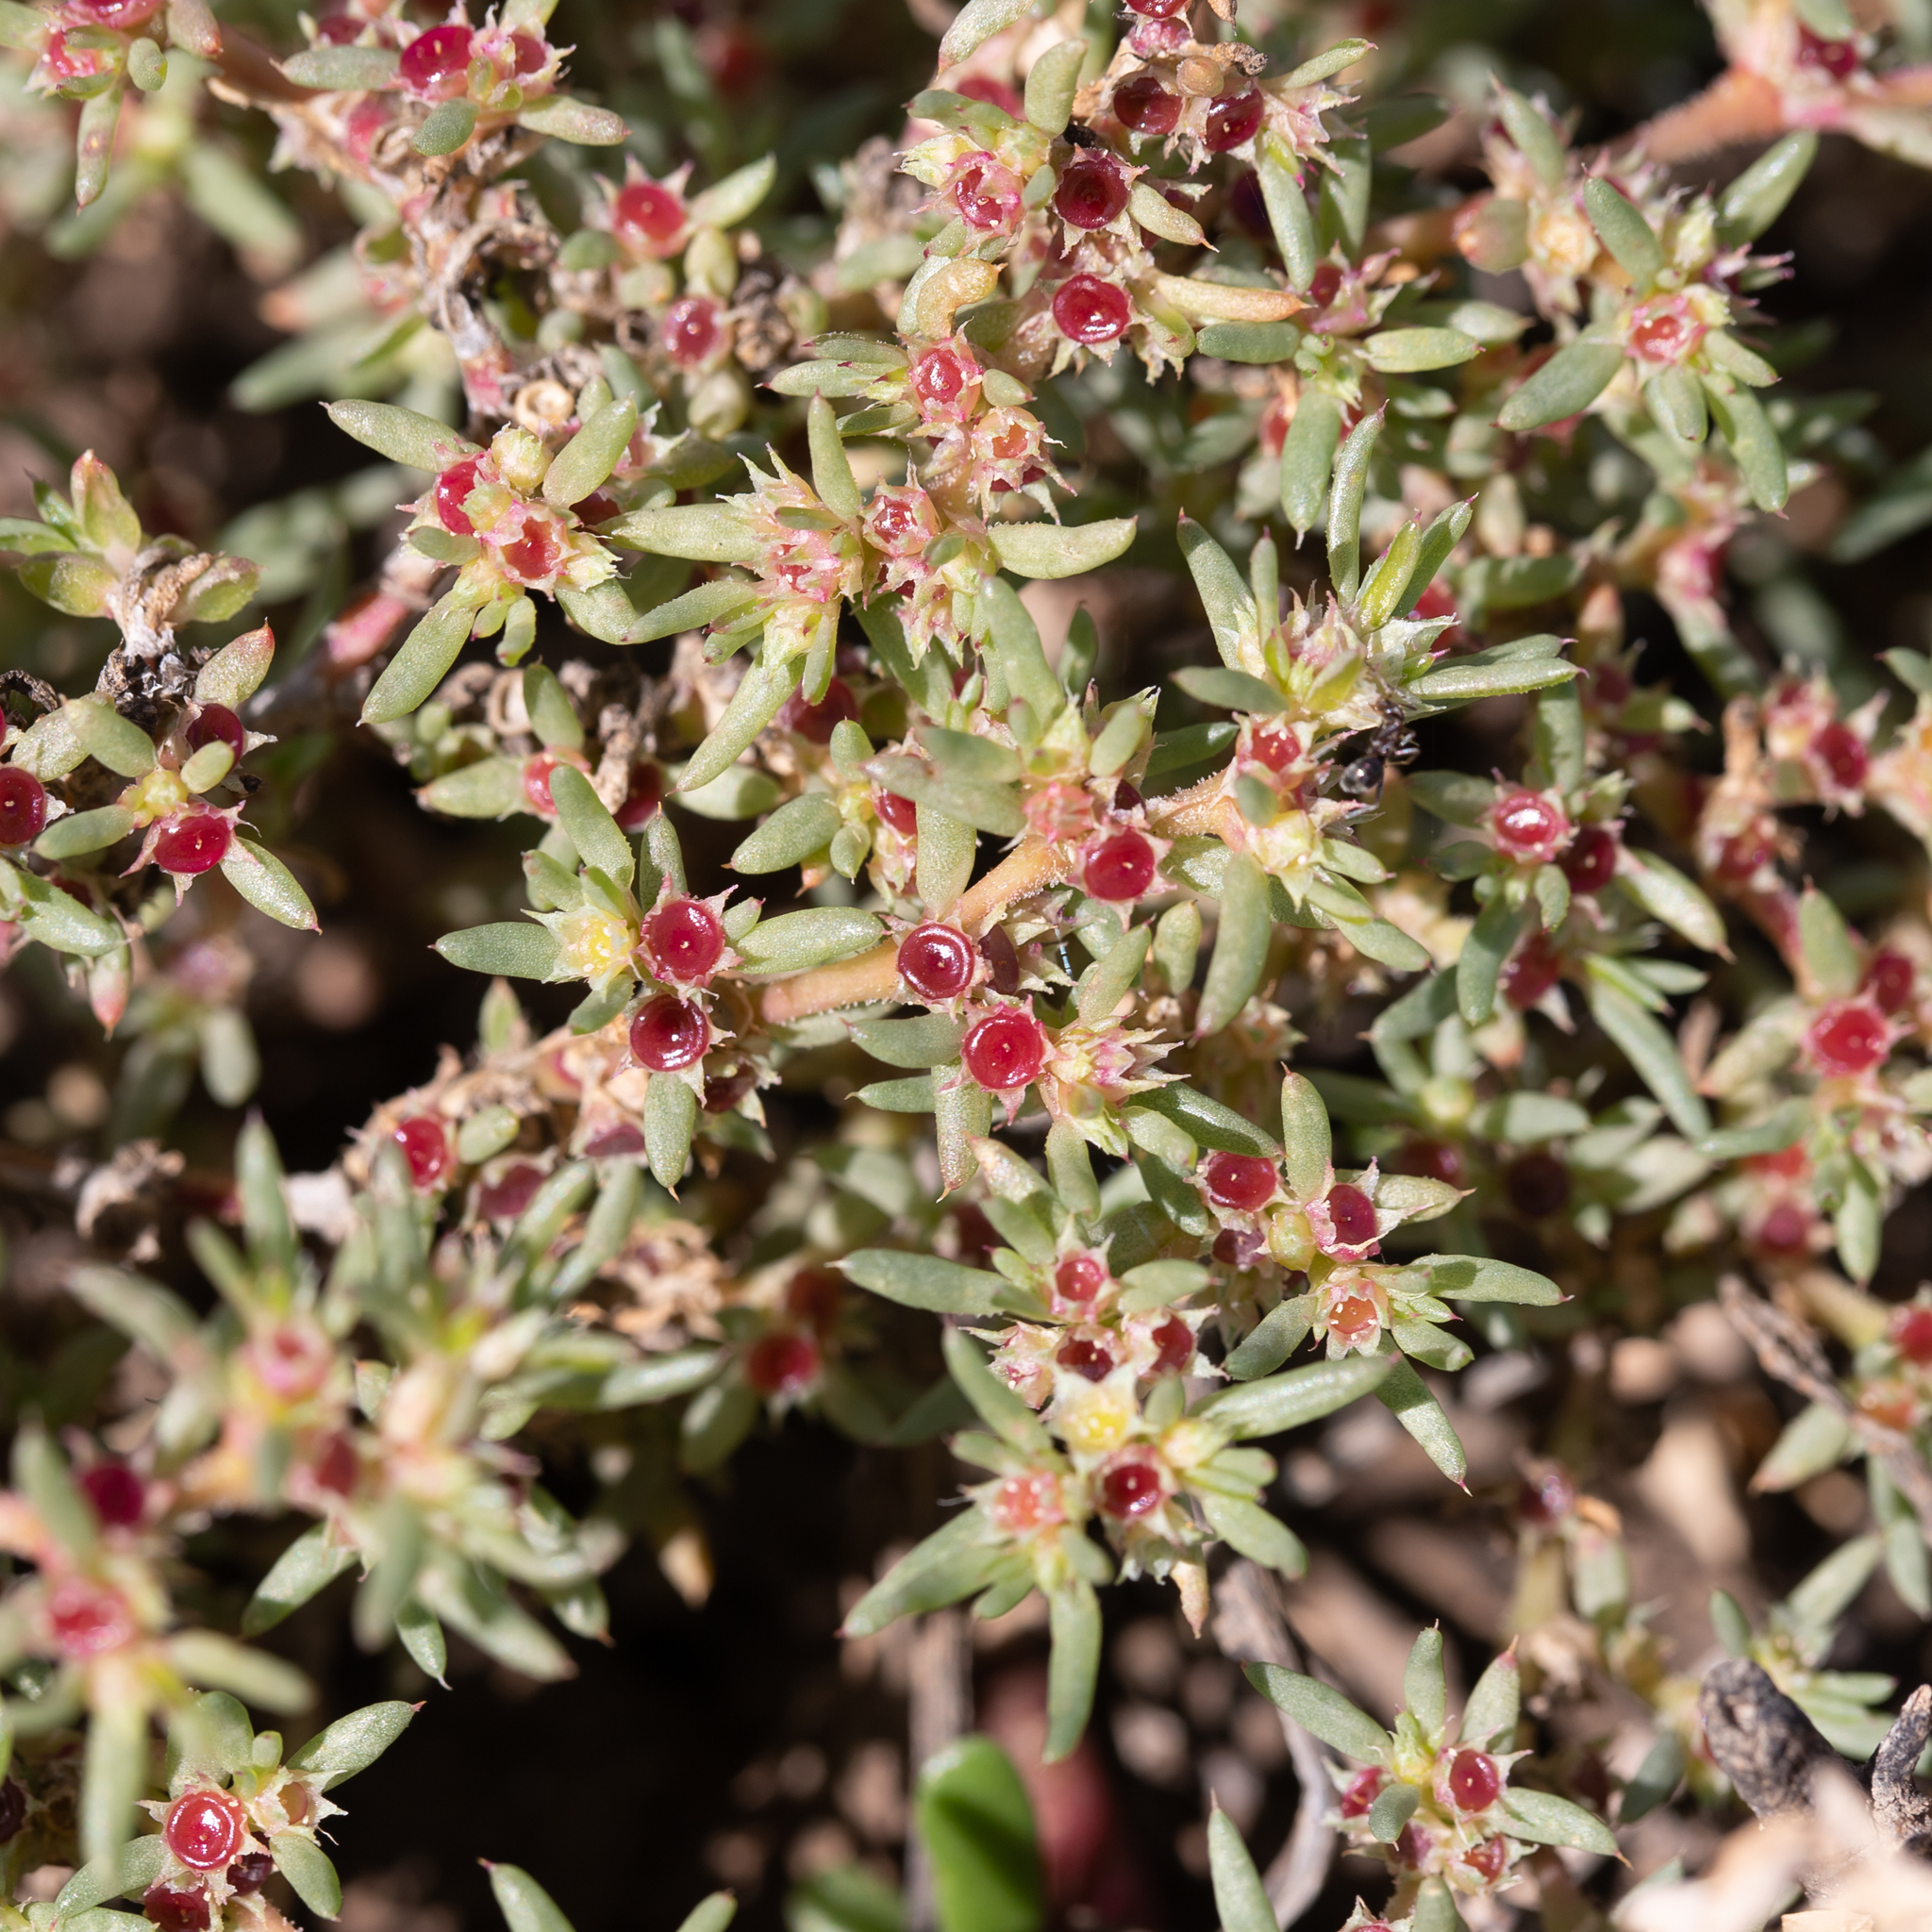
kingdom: Plantae
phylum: Tracheophyta
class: Magnoliopsida
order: Caryophyllales
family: Aizoaceae
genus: Trianthema
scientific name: Trianthema triquetrum
